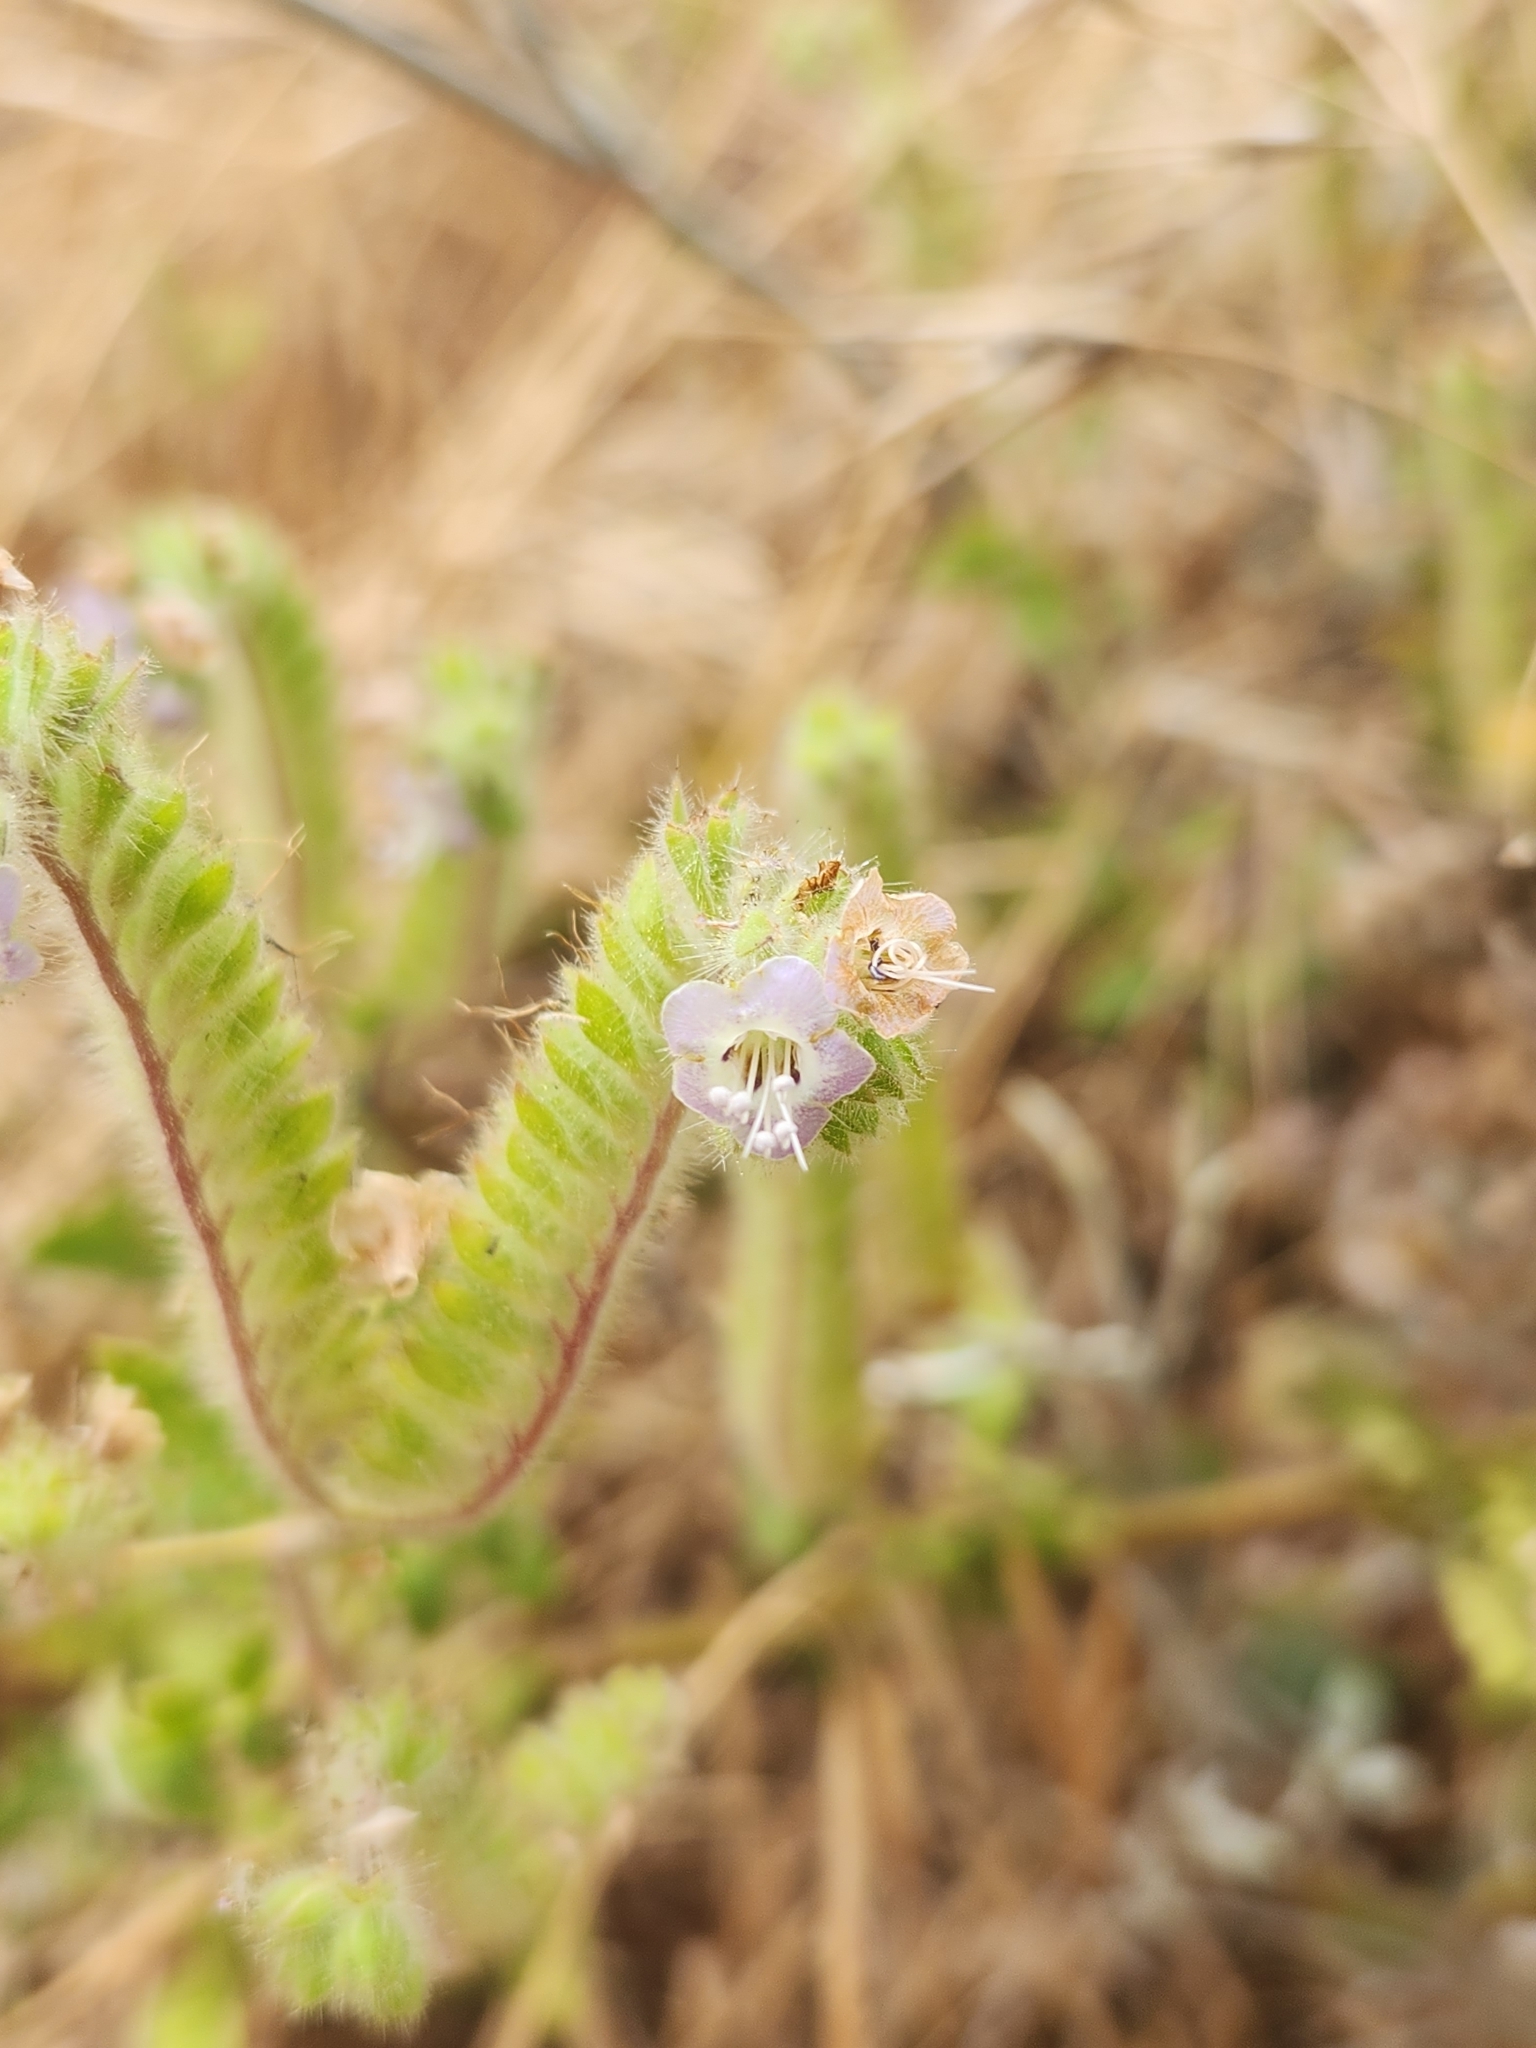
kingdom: Plantae
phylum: Tracheophyta
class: Magnoliopsida
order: Boraginales
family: Hydrophyllaceae
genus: Phacelia
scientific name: Phacelia ramosissima
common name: Branching phacelia
